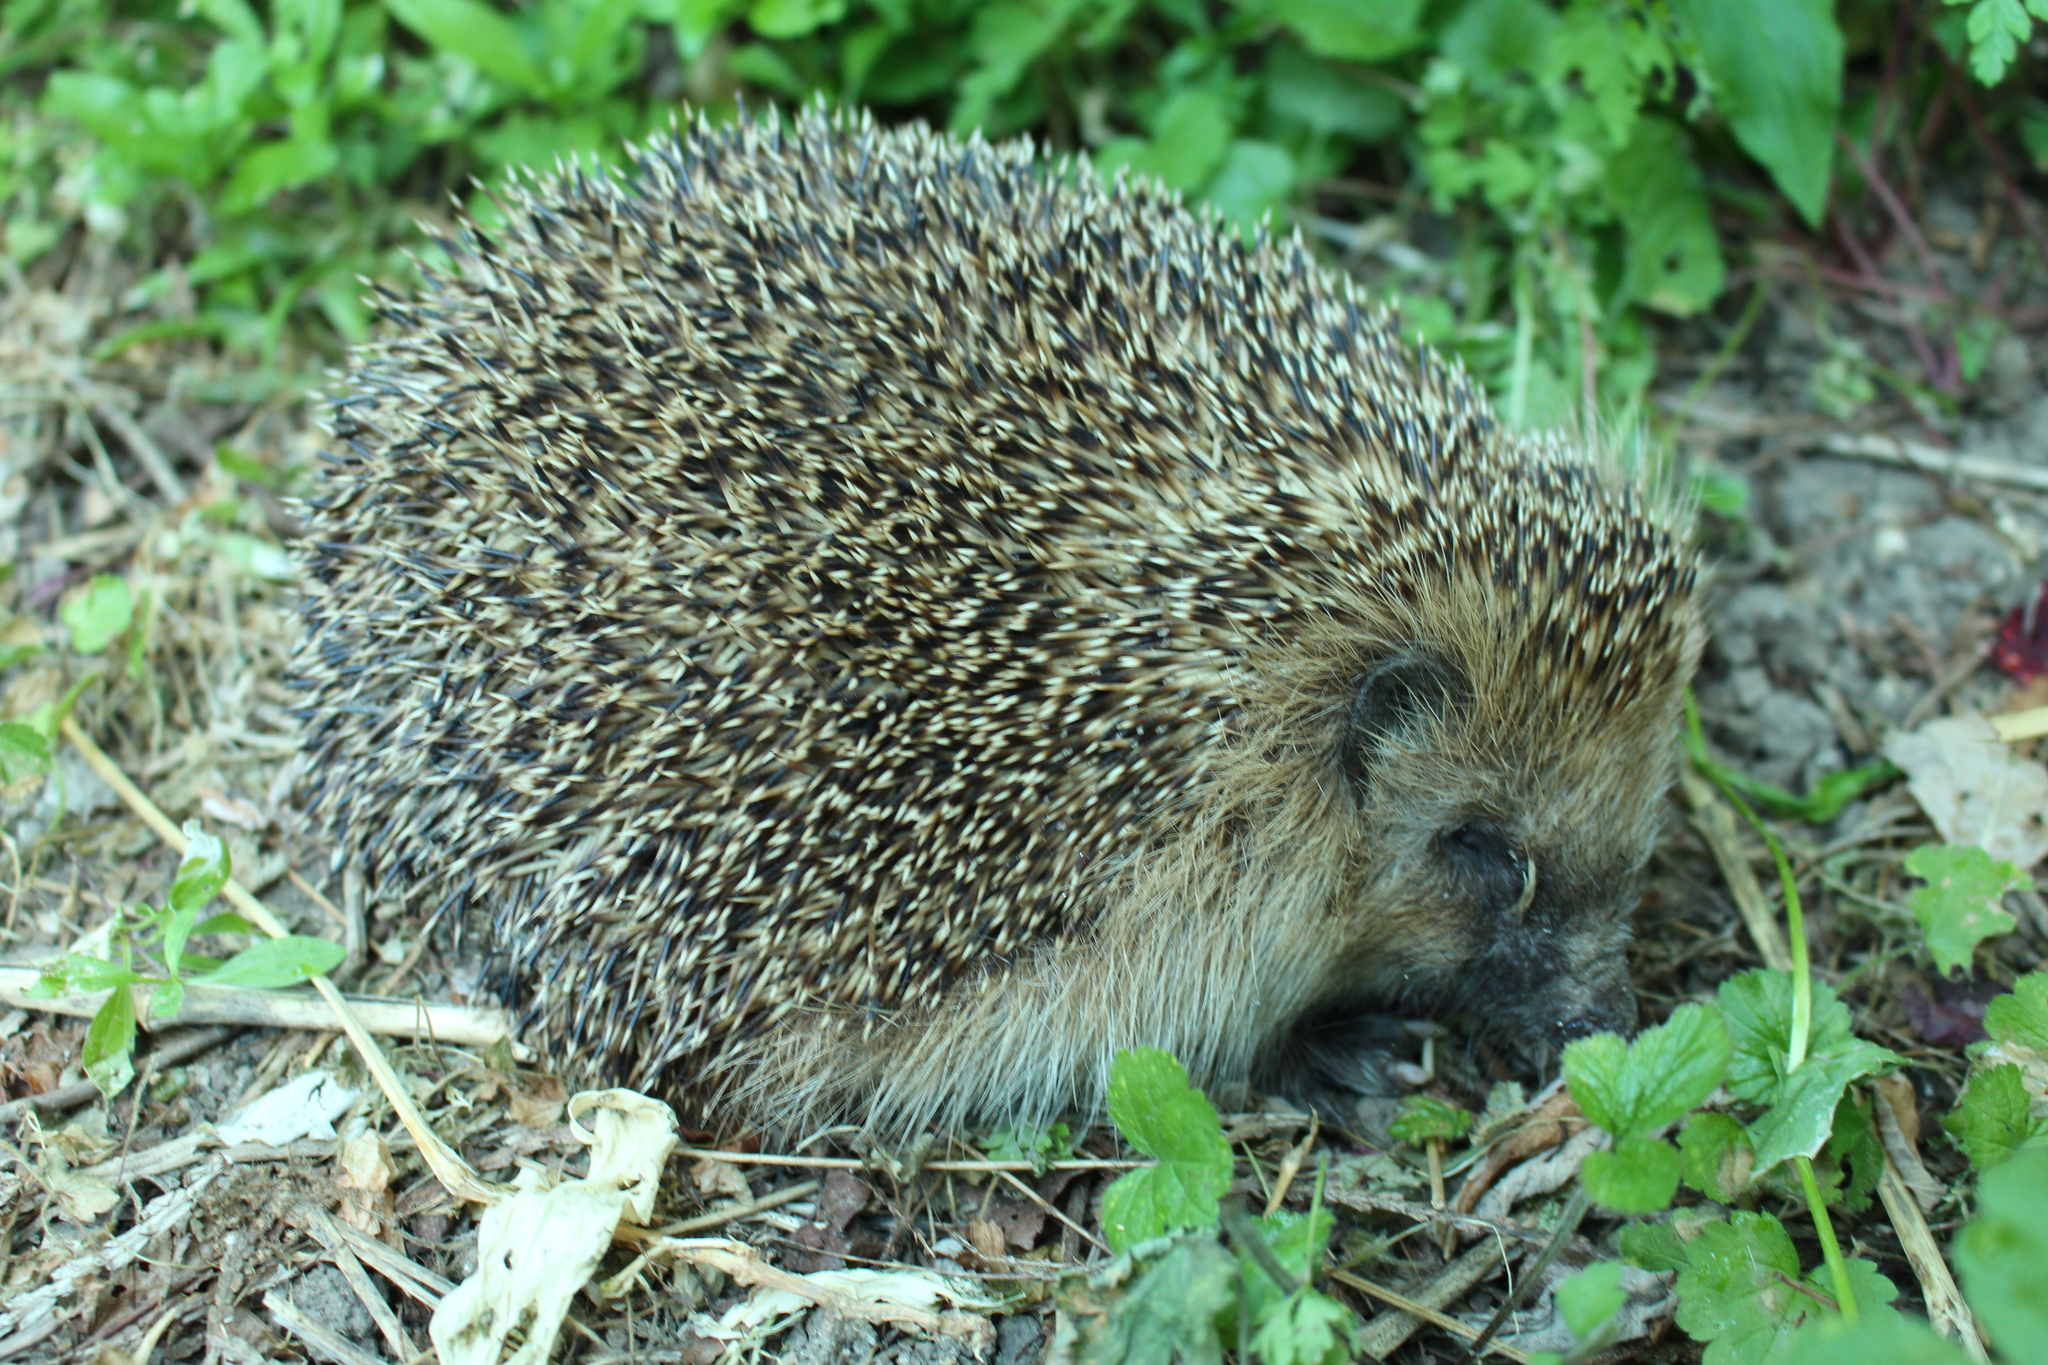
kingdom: Animalia
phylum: Chordata
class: Mammalia
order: Erinaceomorpha
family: Erinaceidae
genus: Erinaceus
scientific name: Erinaceus europaeus
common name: West european hedgehog
